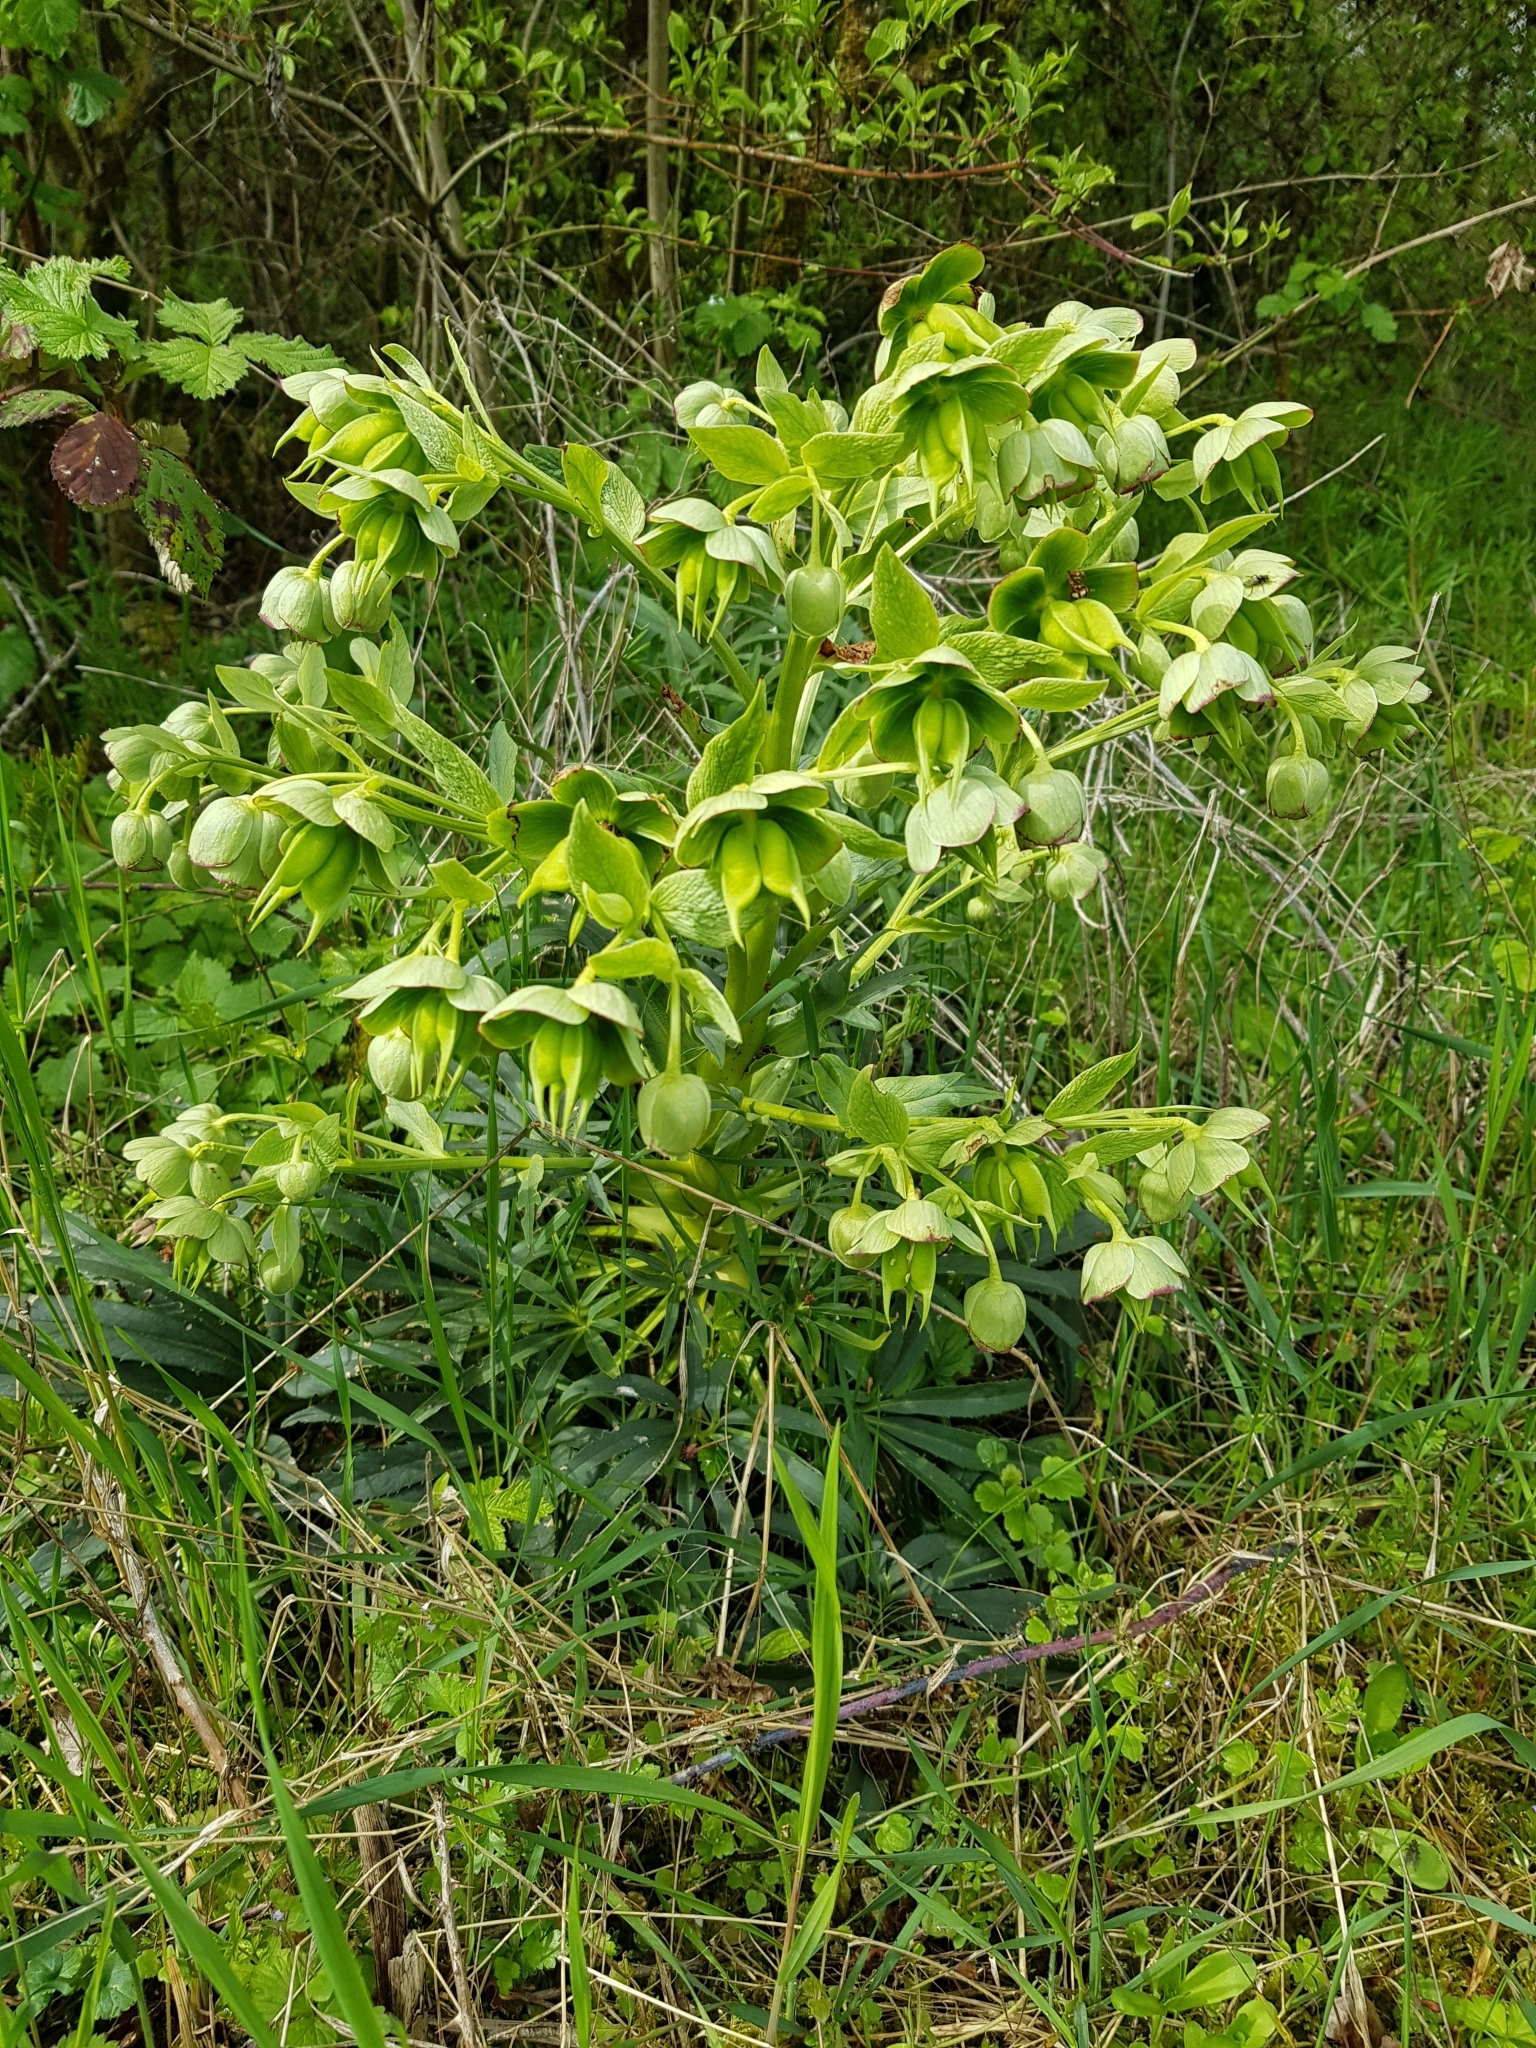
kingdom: Plantae
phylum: Tracheophyta
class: Magnoliopsida
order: Ranunculales
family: Ranunculaceae
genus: Helleborus
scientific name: Helleborus foetidus
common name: Stinking hellebore
